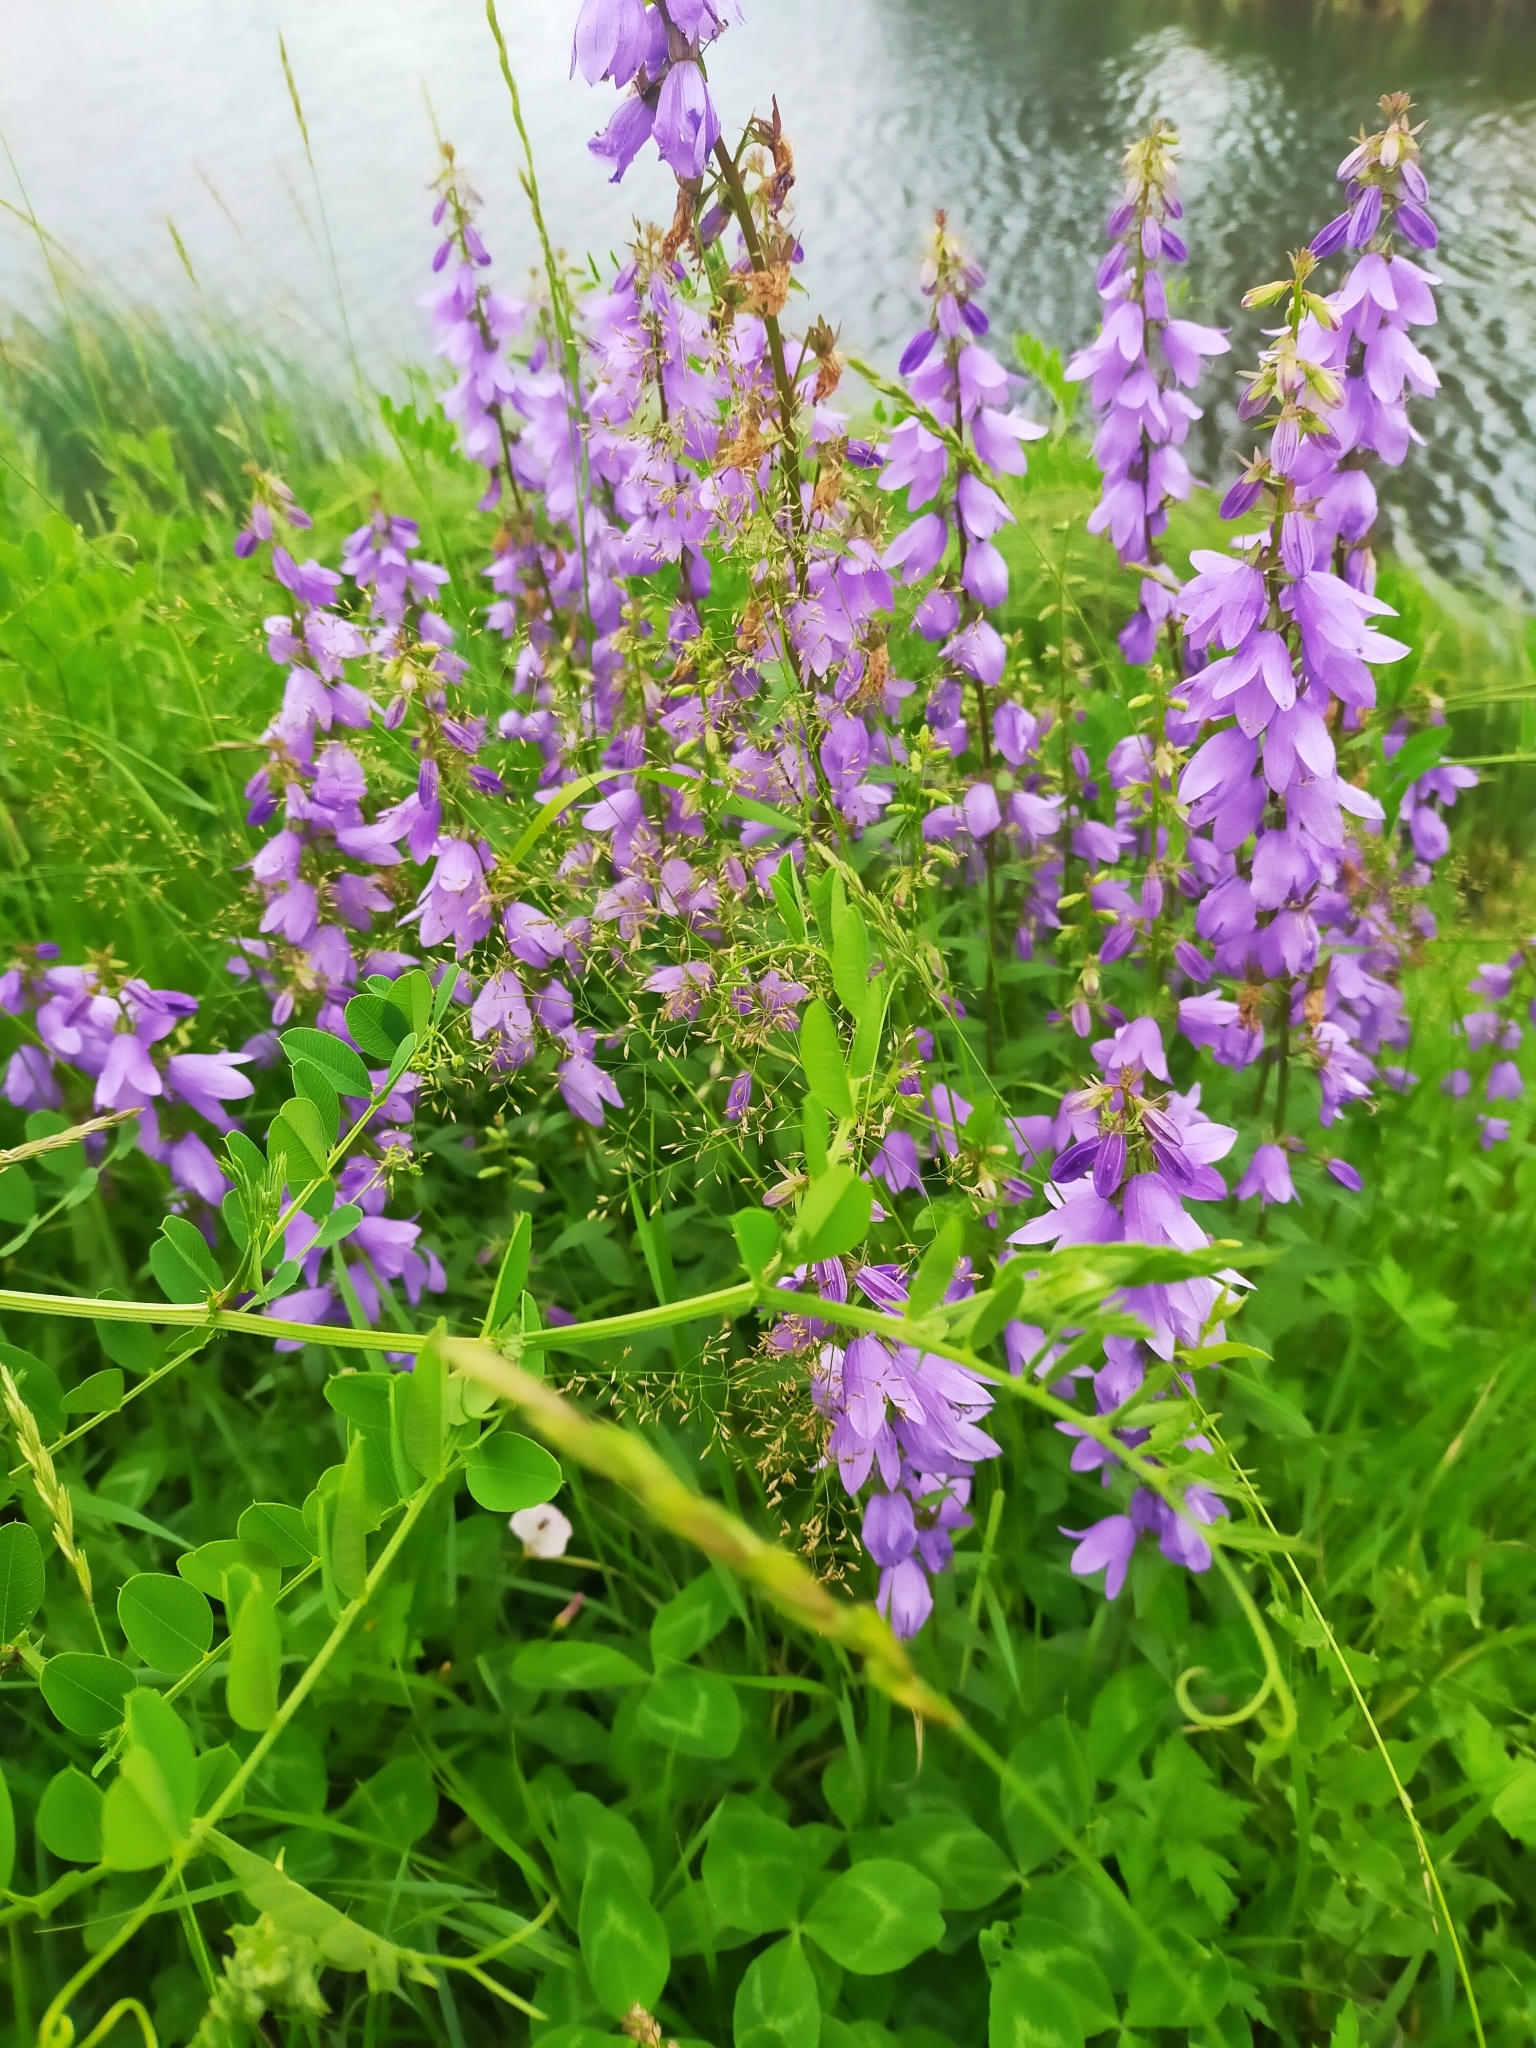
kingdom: Plantae
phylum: Tracheophyta
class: Magnoliopsida
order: Asterales
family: Campanulaceae
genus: Campanula
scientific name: Campanula rapunculoides
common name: Creeping bellflower
